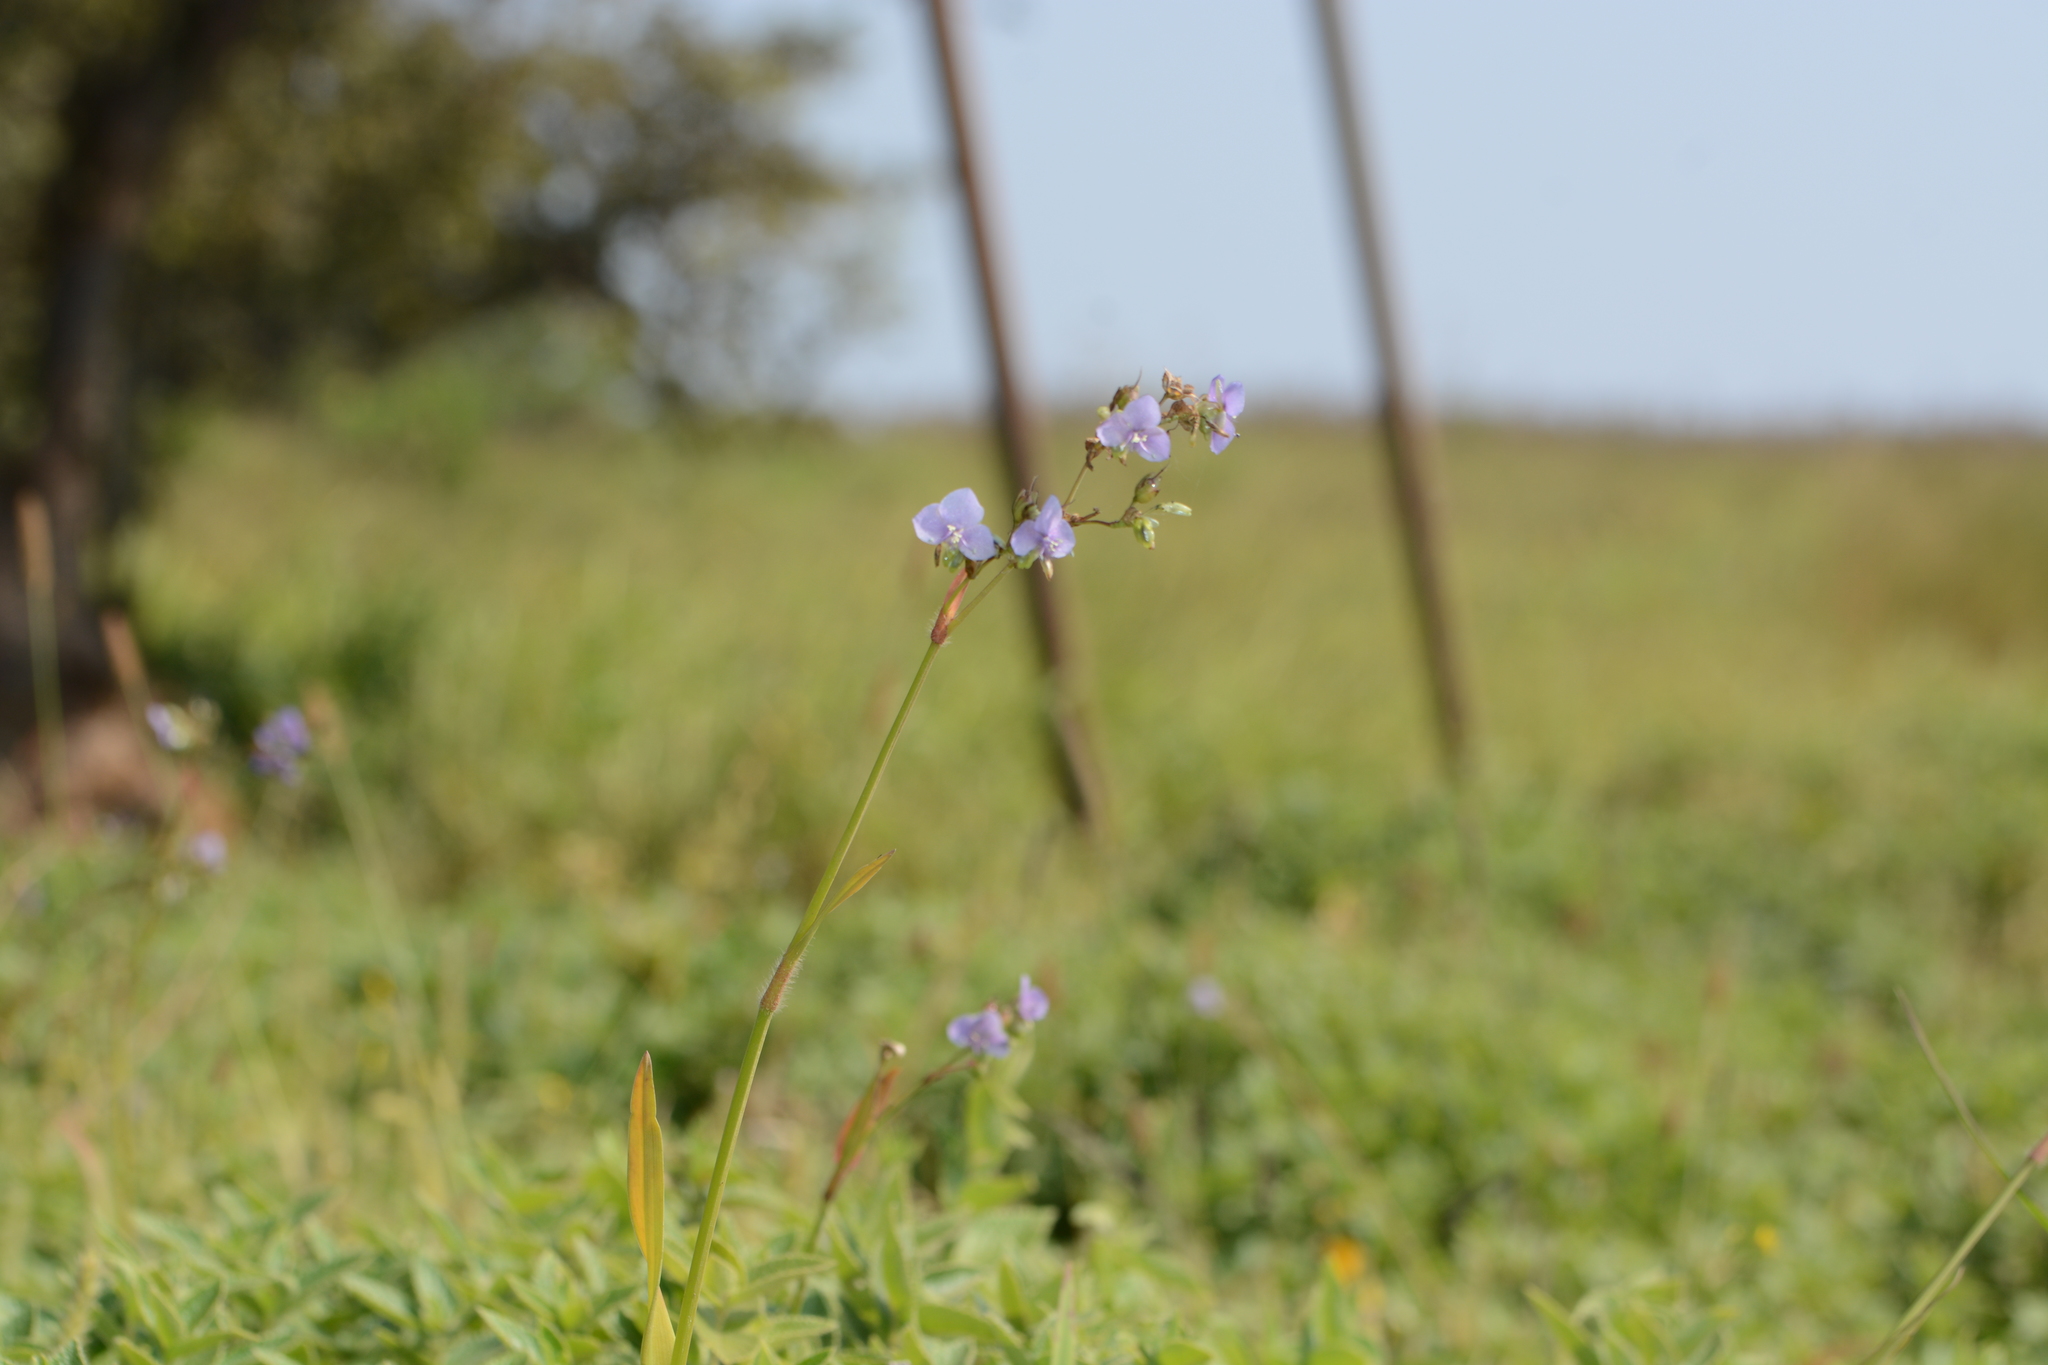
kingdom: Plantae
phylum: Tracheophyta
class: Liliopsida
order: Commelinales
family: Commelinaceae
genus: Murdannia
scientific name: Murdannia simplex
